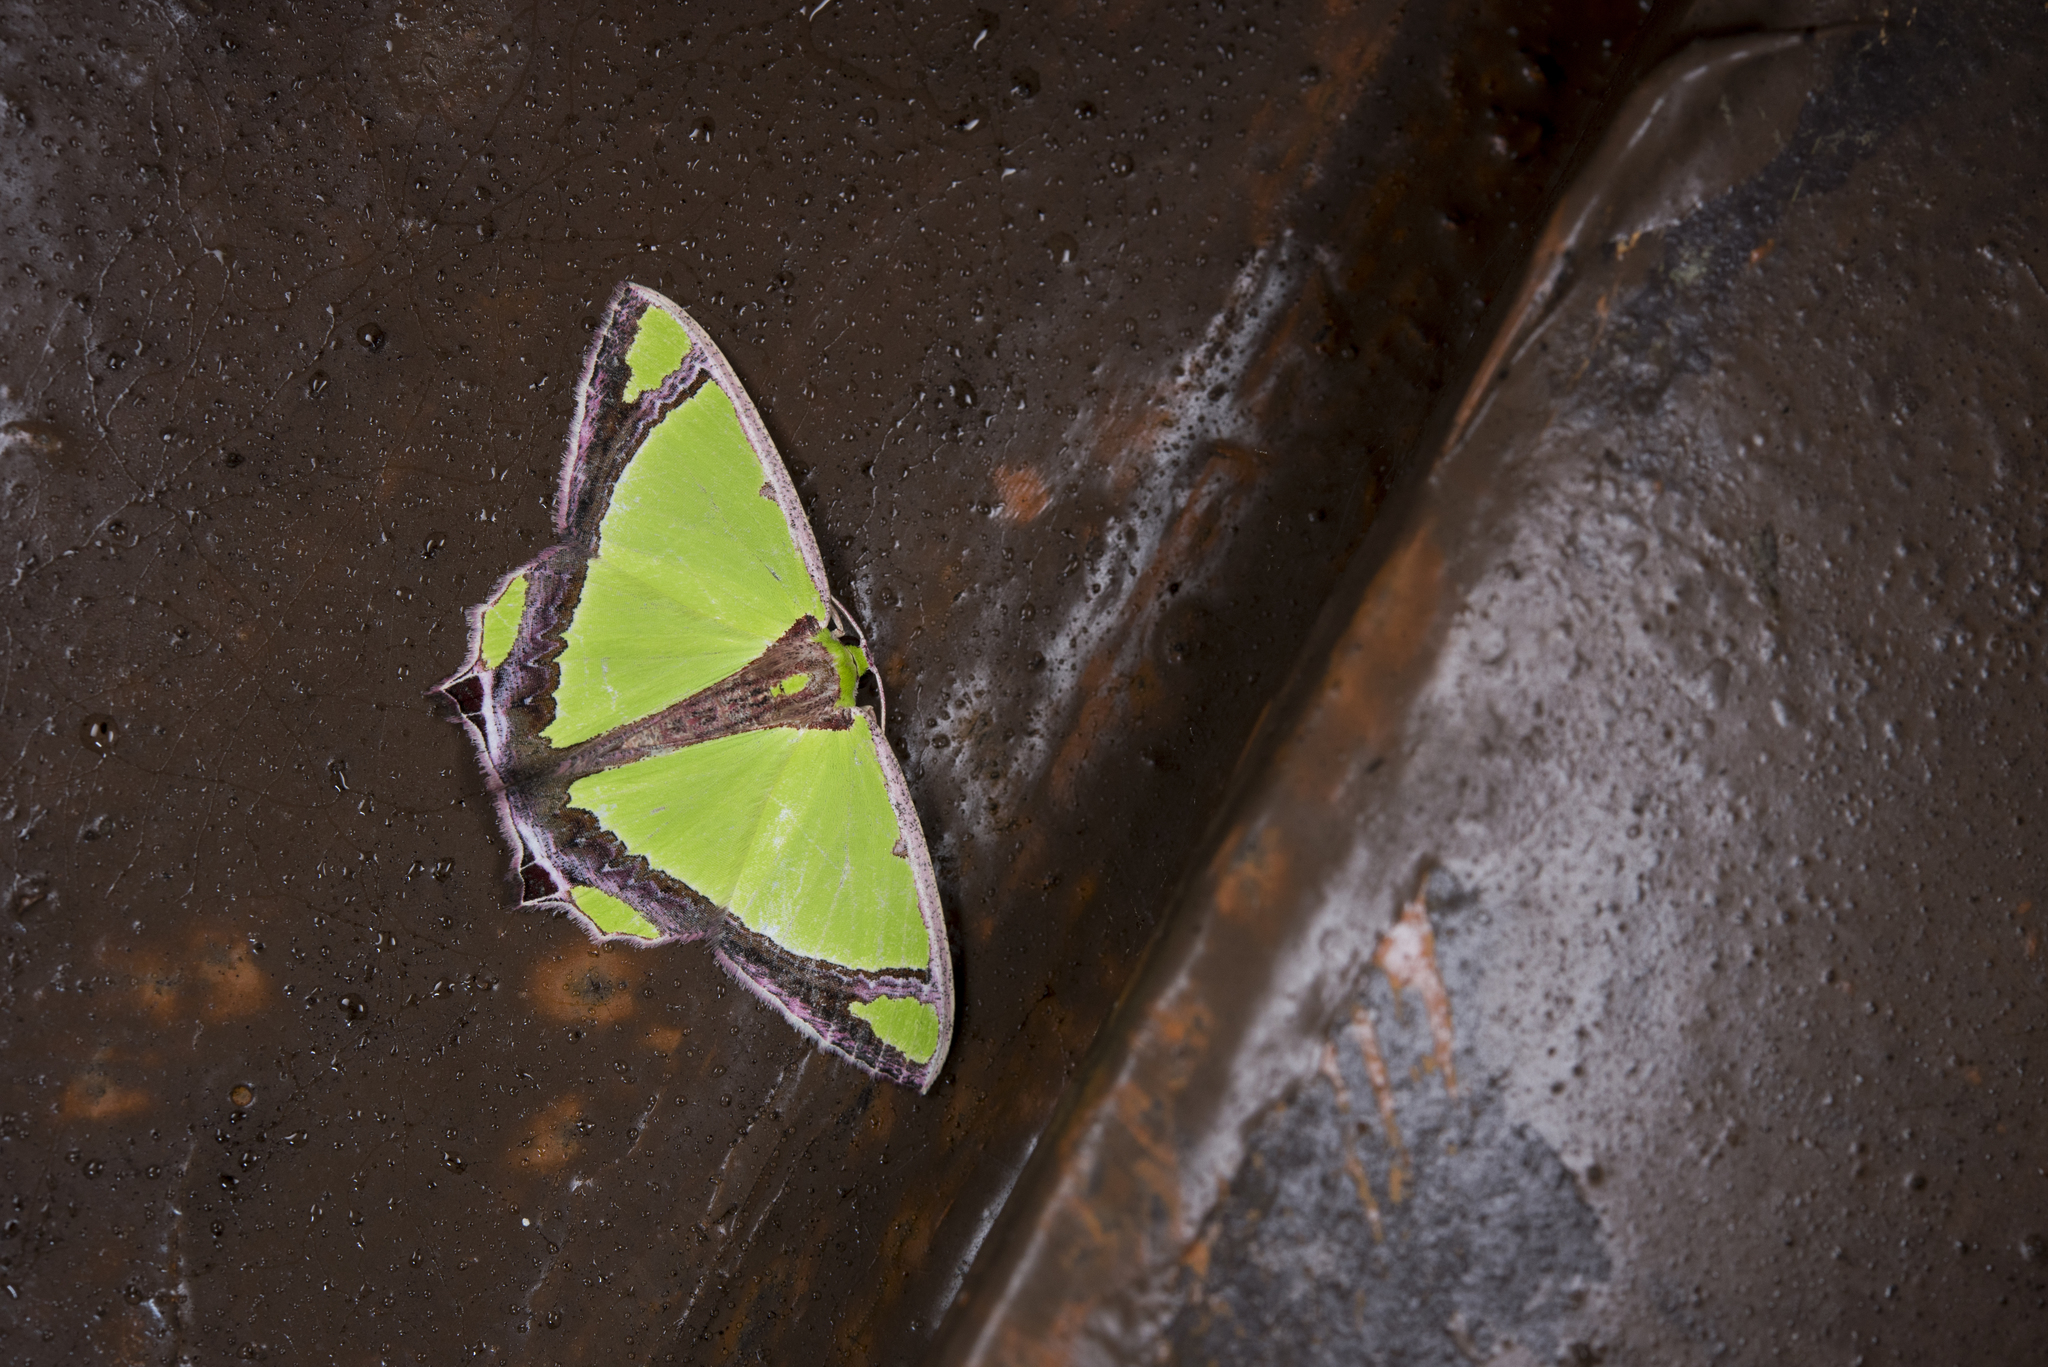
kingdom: Animalia
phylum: Arthropoda
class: Insecta
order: Lepidoptera
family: Geometridae
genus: Agathia
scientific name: Agathia laetata
